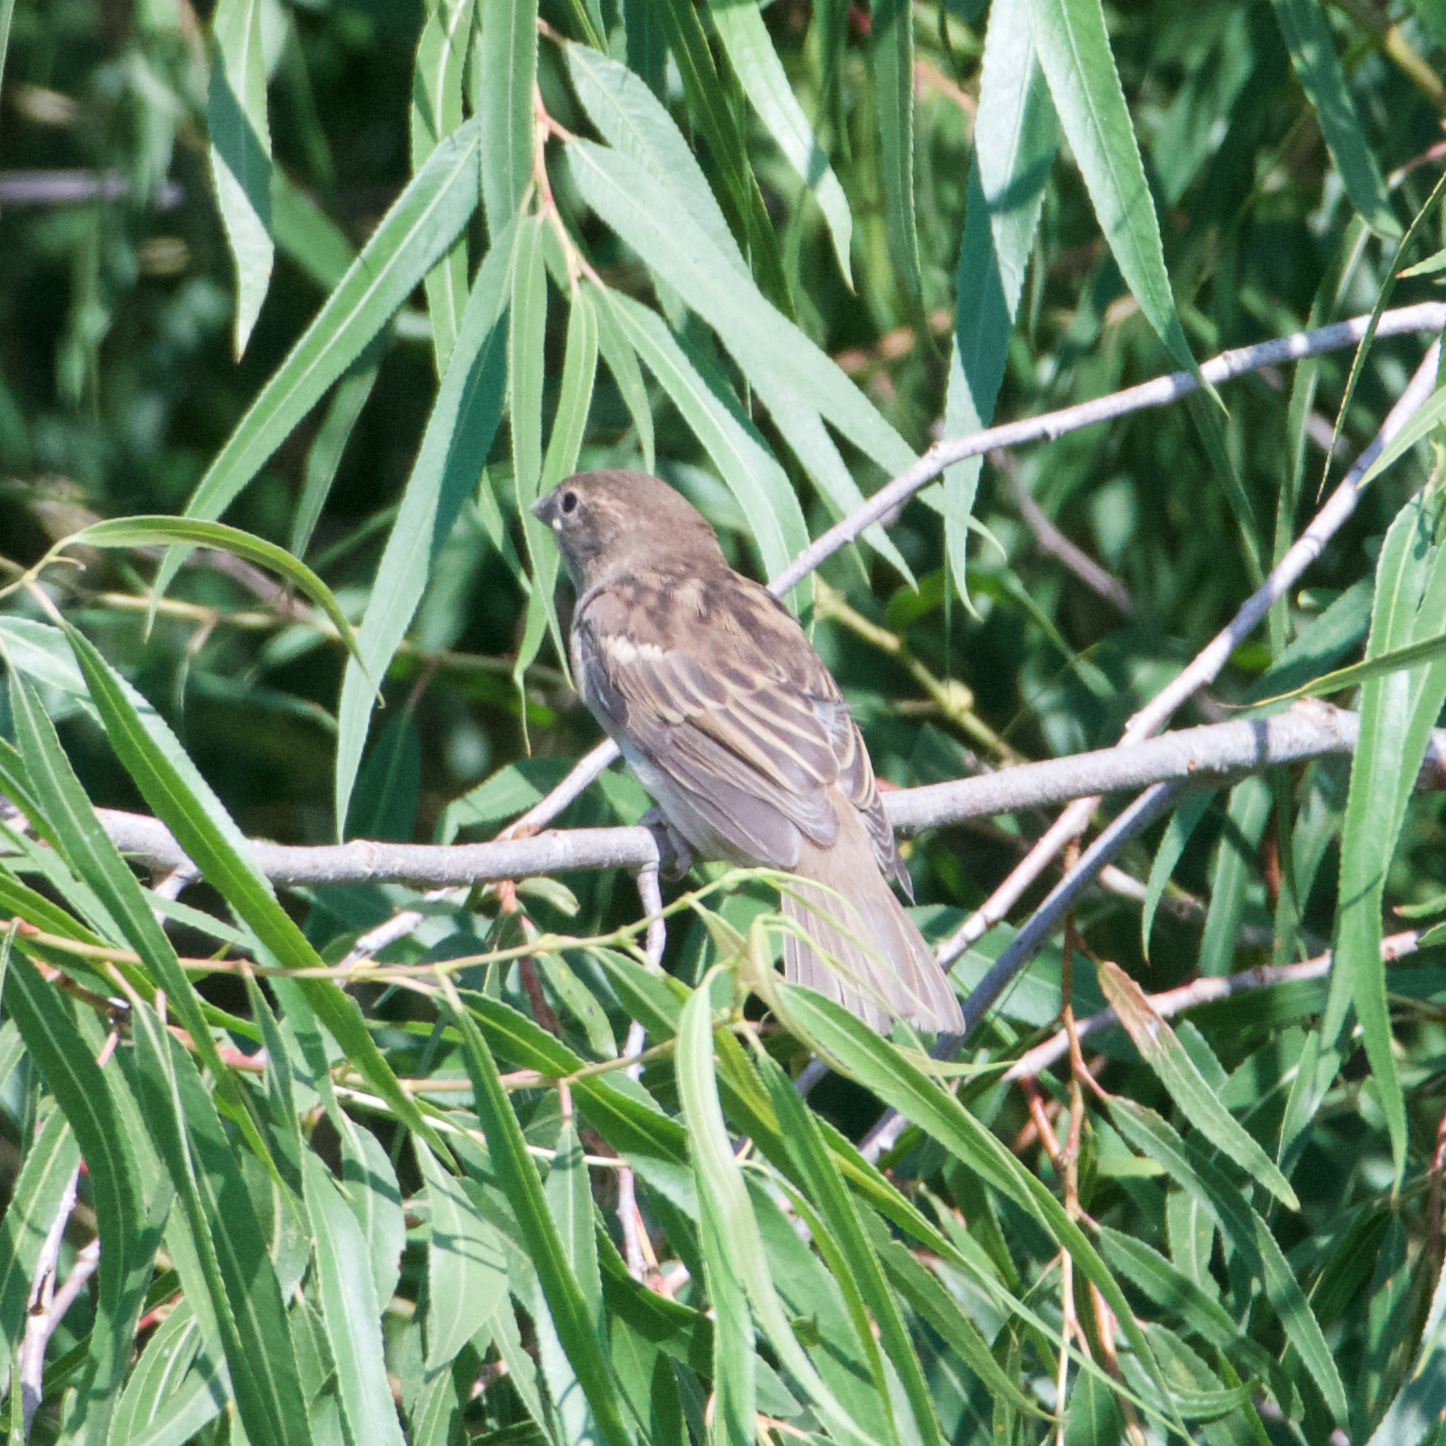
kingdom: Animalia
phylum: Chordata
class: Aves
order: Passeriformes
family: Passeridae
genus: Passer
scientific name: Passer domesticus
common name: House sparrow
